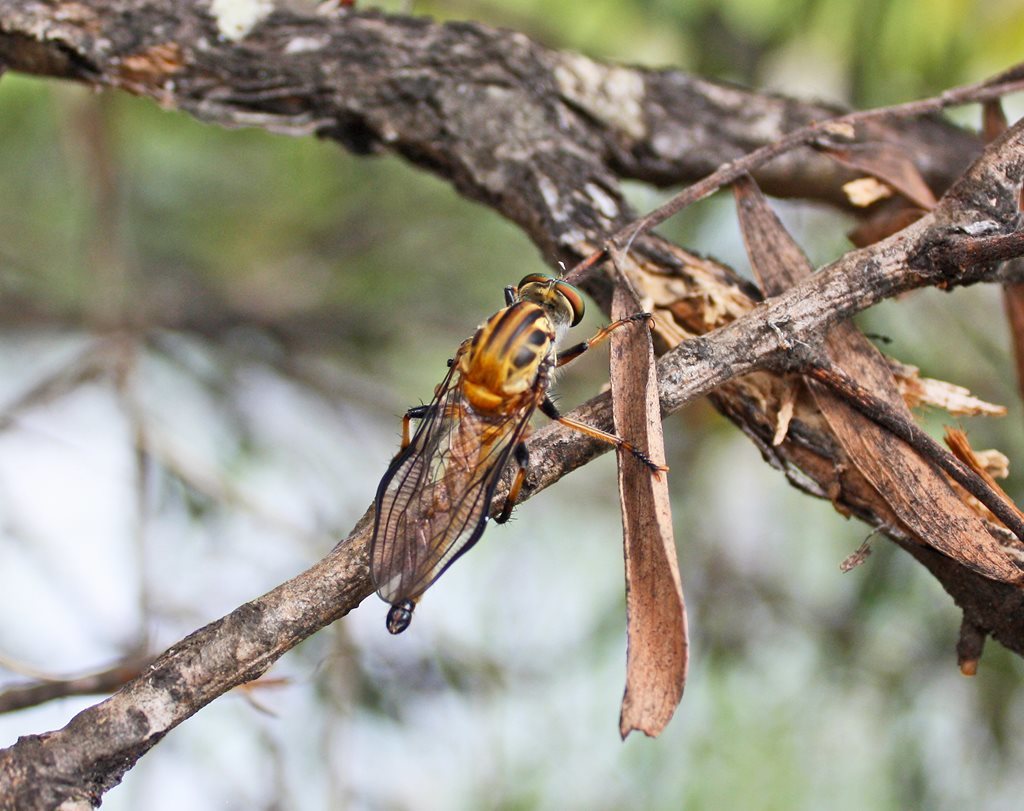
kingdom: Animalia
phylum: Arthropoda
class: Insecta
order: Diptera
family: Asilidae
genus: Ommatius
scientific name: Ommatius mackayi
